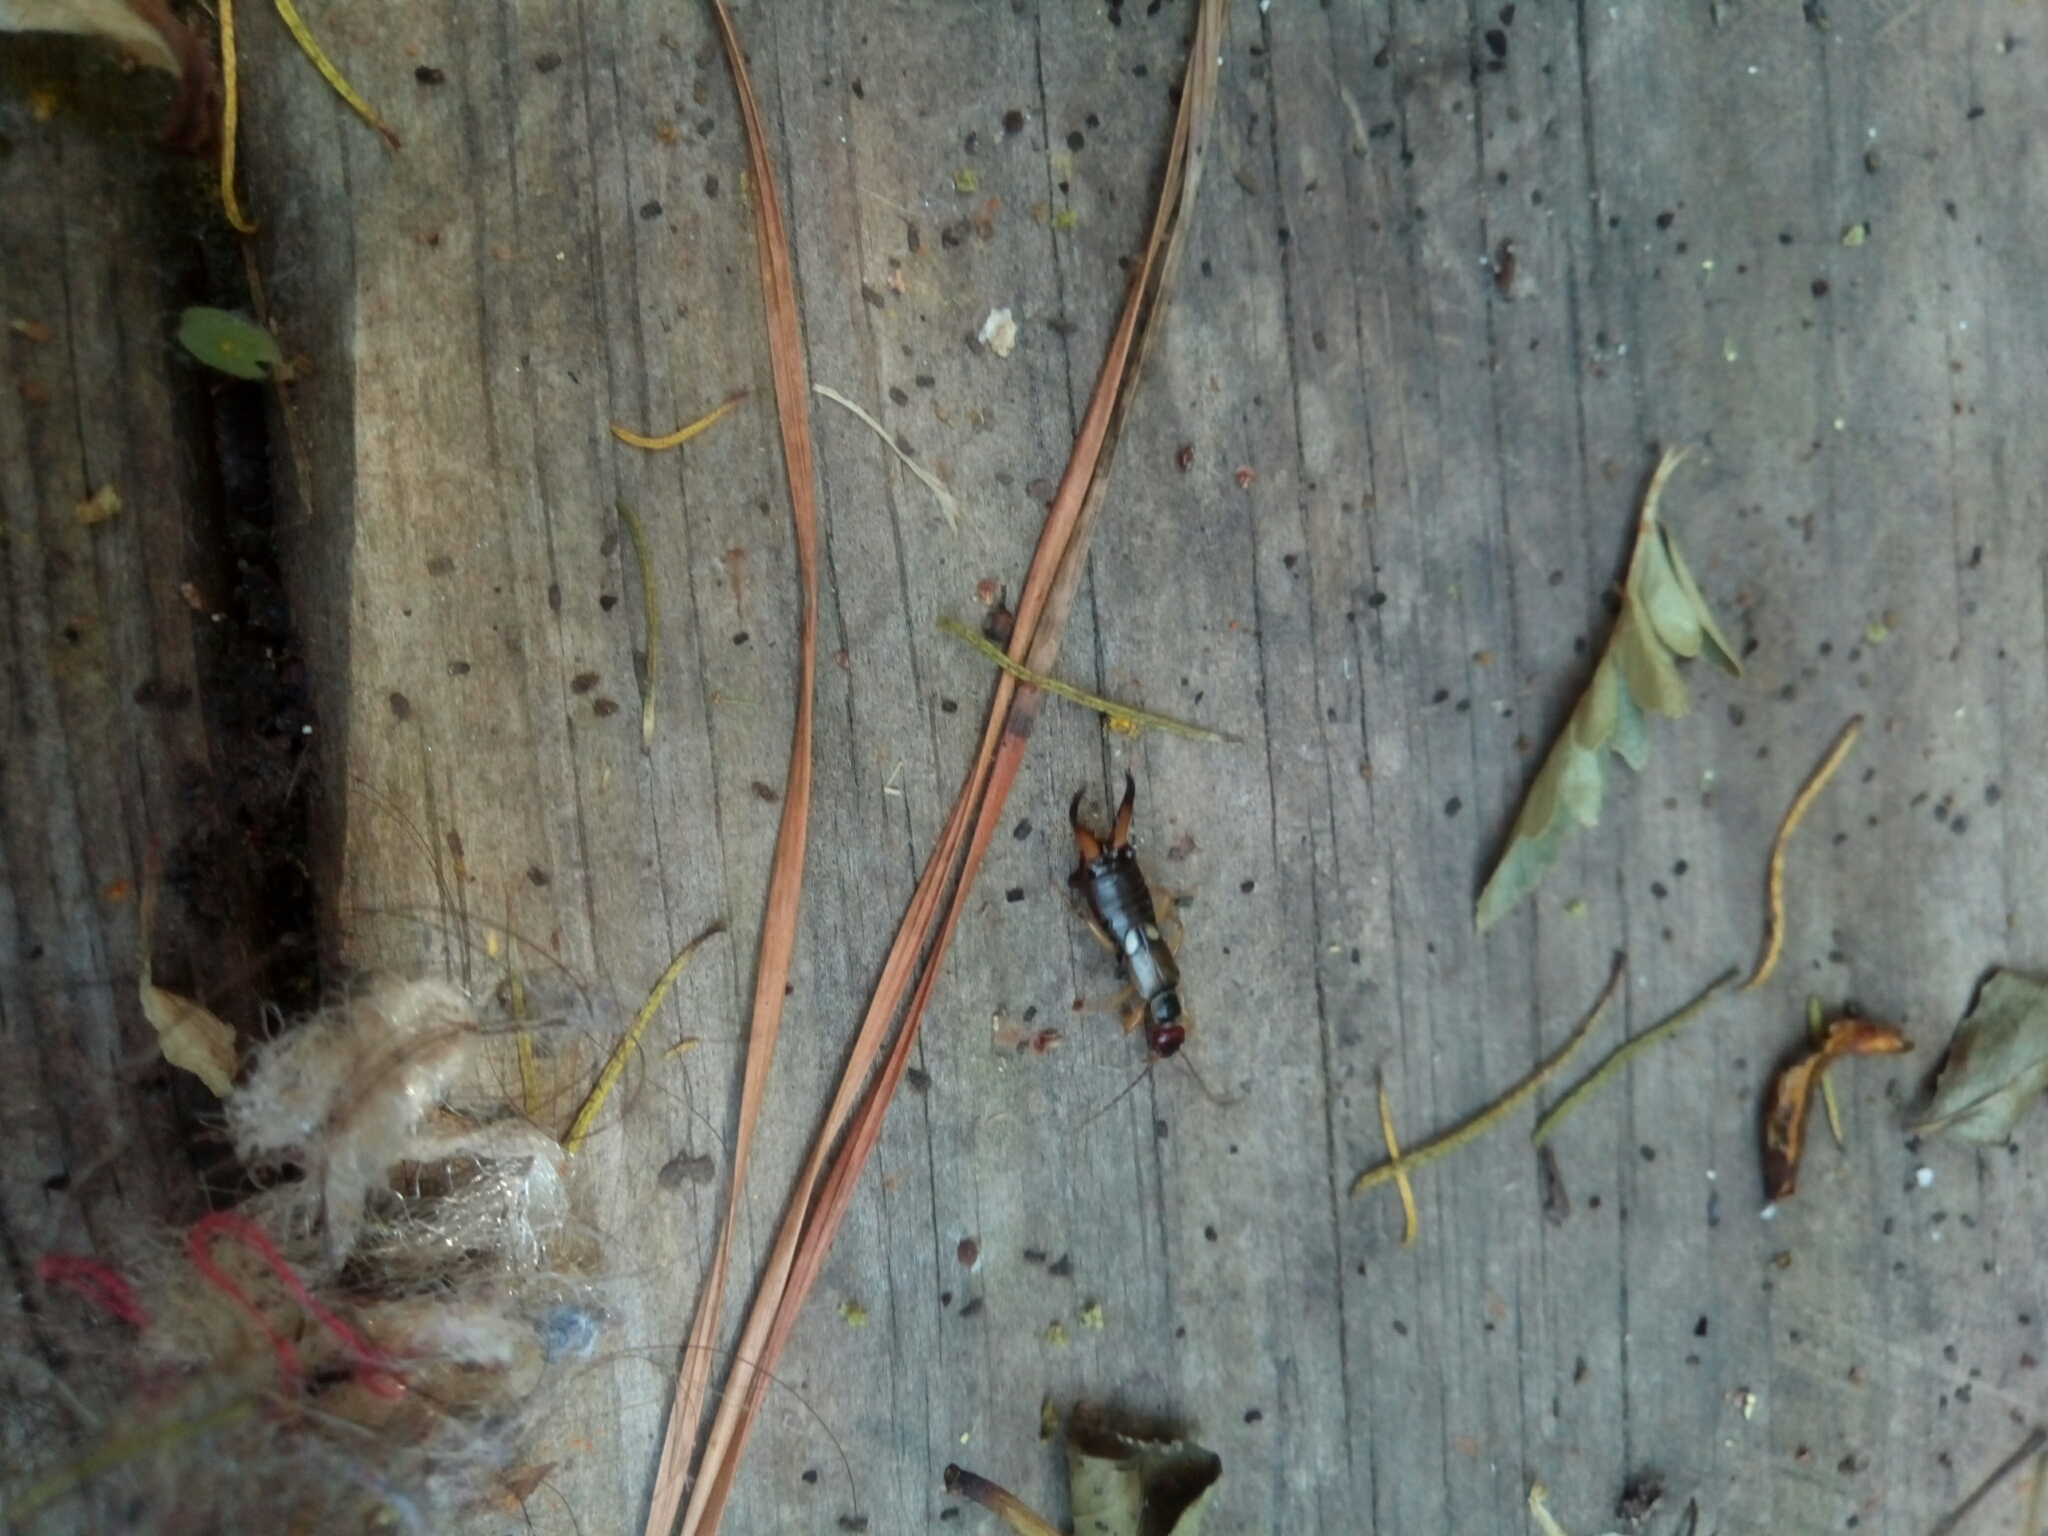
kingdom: Animalia
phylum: Arthropoda
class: Insecta
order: Dermaptera
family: Forficulidae
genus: Forficula
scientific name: Forficula
